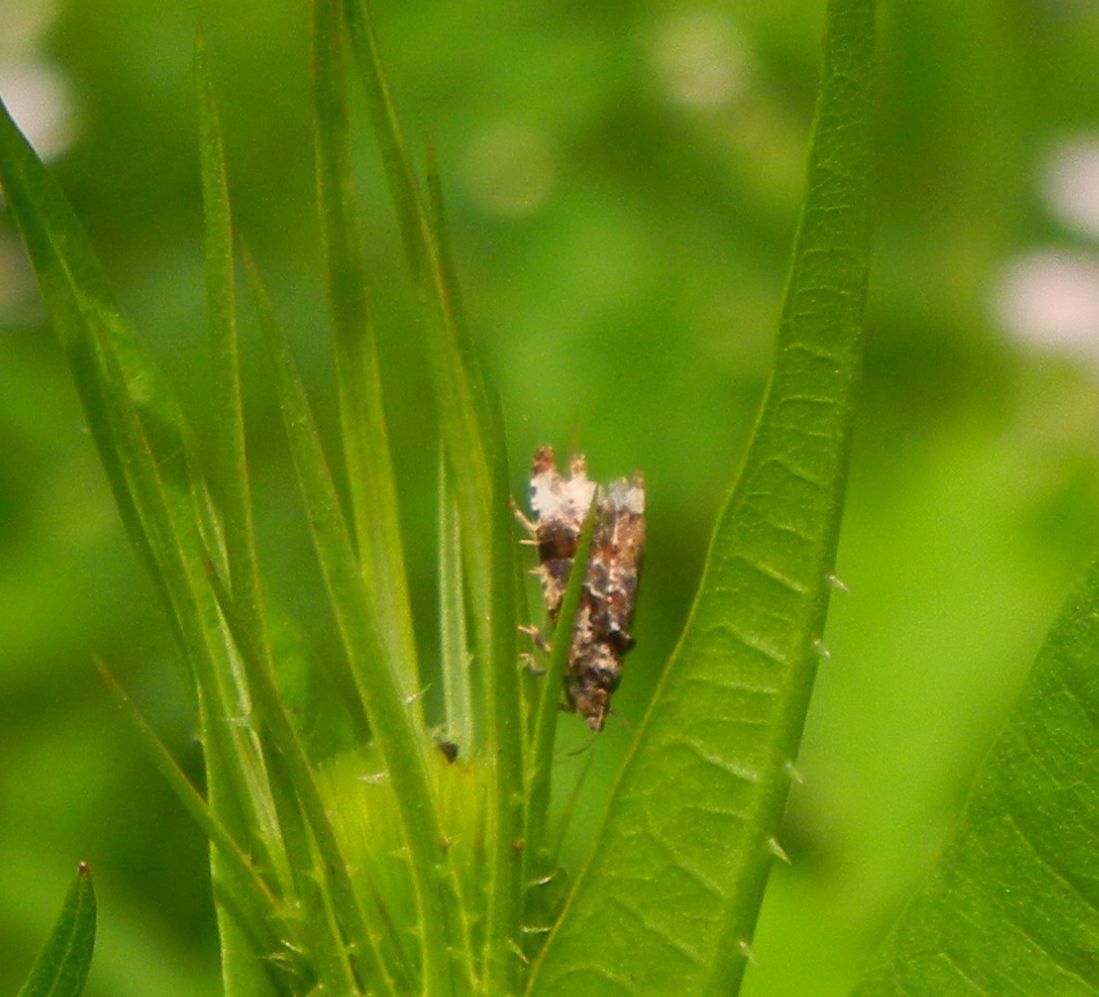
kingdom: Animalia
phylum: Arthropoda
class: Insecta
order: Lepidoptera
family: Tortricidae
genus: Endothenia
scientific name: Endothenia gentianaeana
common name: Teasel marble
